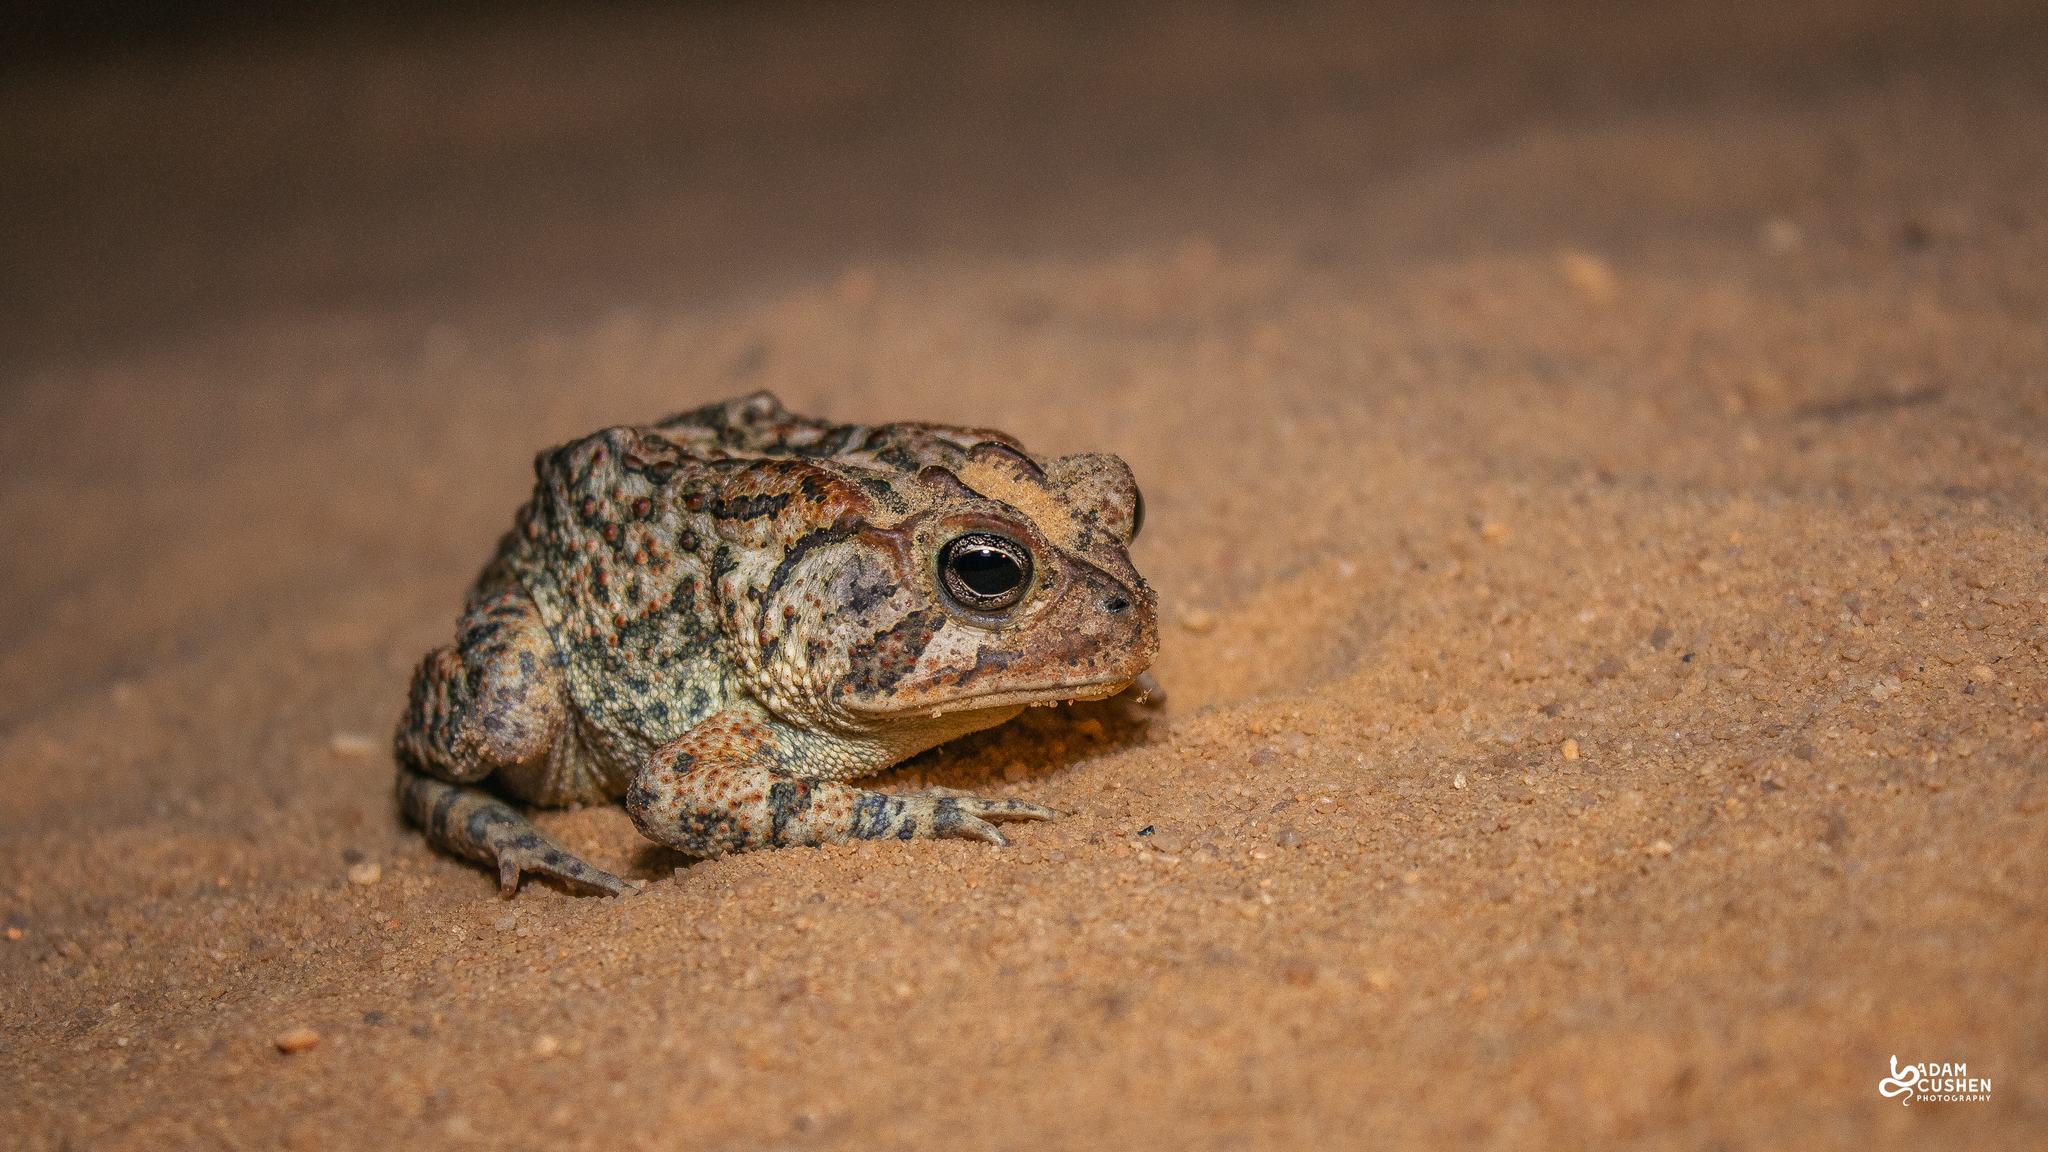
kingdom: Animalia
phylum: Chordata
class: Amphibia
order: Anura
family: Bufonidae
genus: Anaxyrus
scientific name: Anaxyrus terrestris
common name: Southern toad
